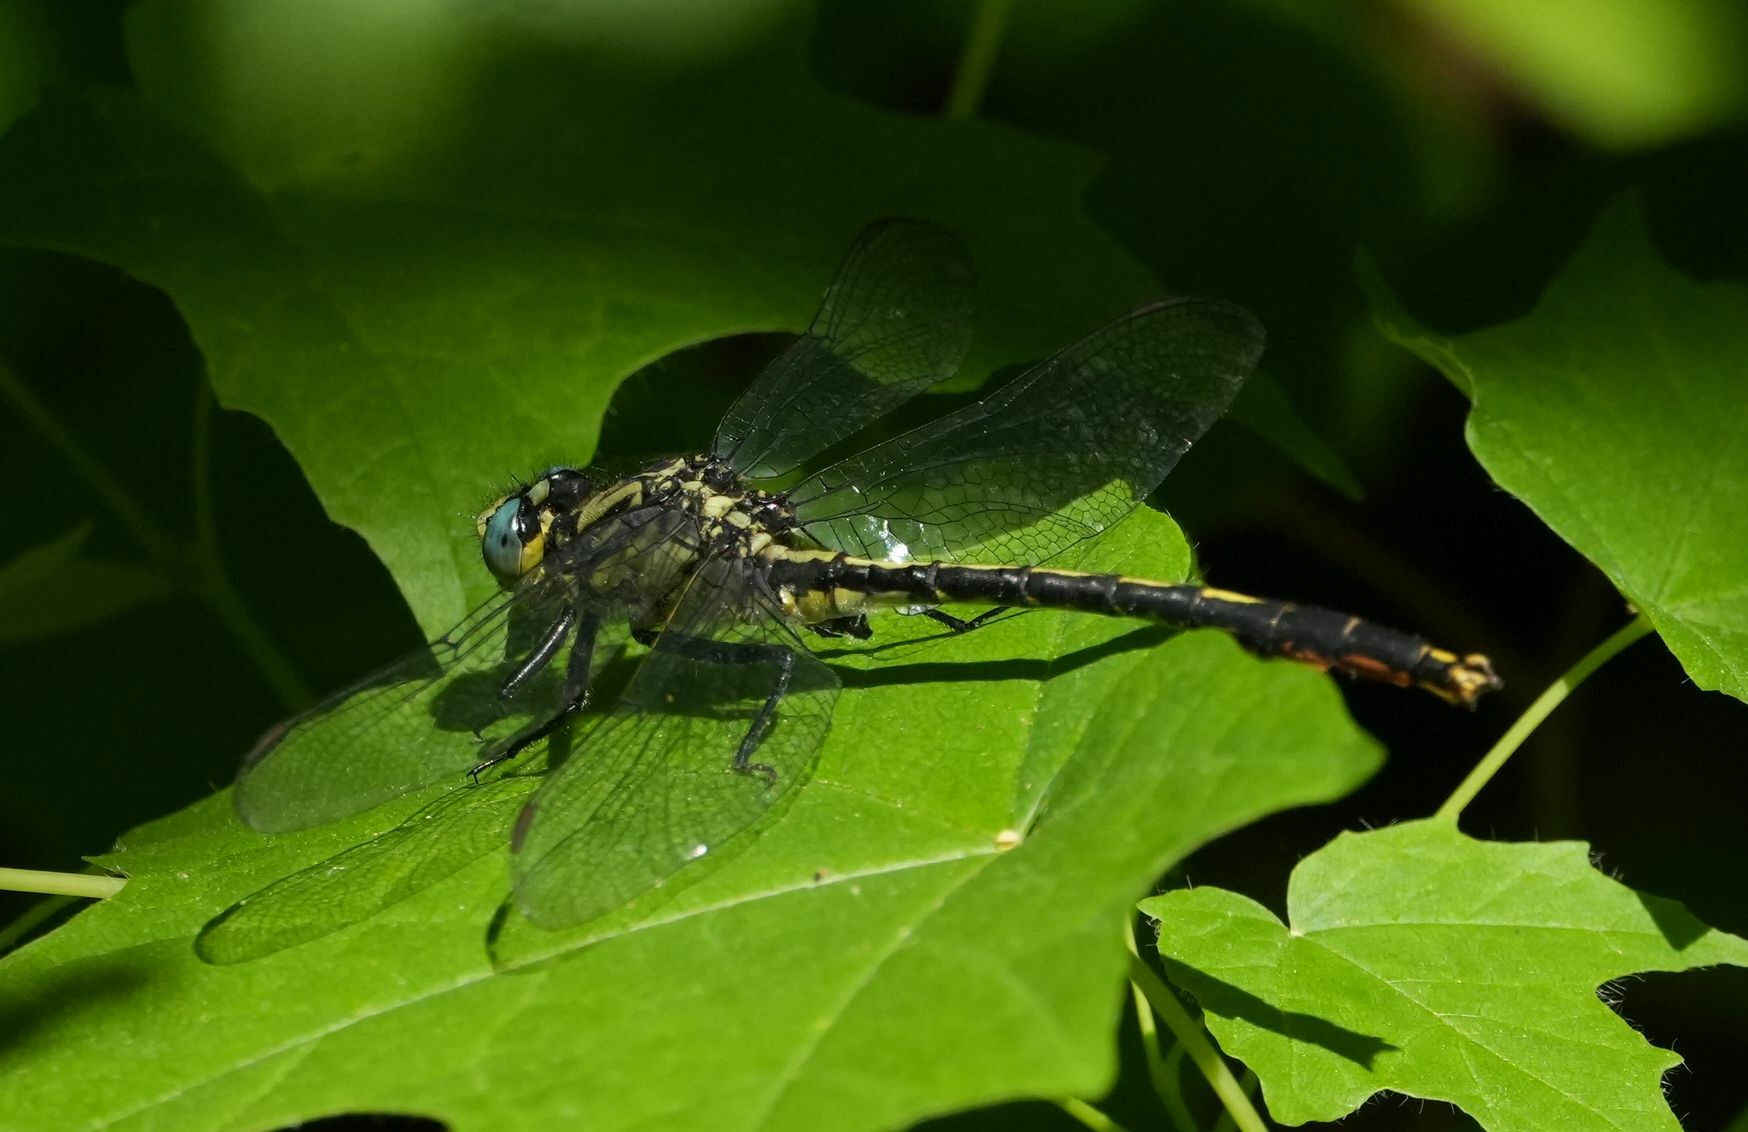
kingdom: Animalia
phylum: Arthropoda
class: Insecta
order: Odonata
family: Gomphidae
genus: Arigomphus
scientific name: Arigomphus furcifer
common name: Lilypad clubtail
